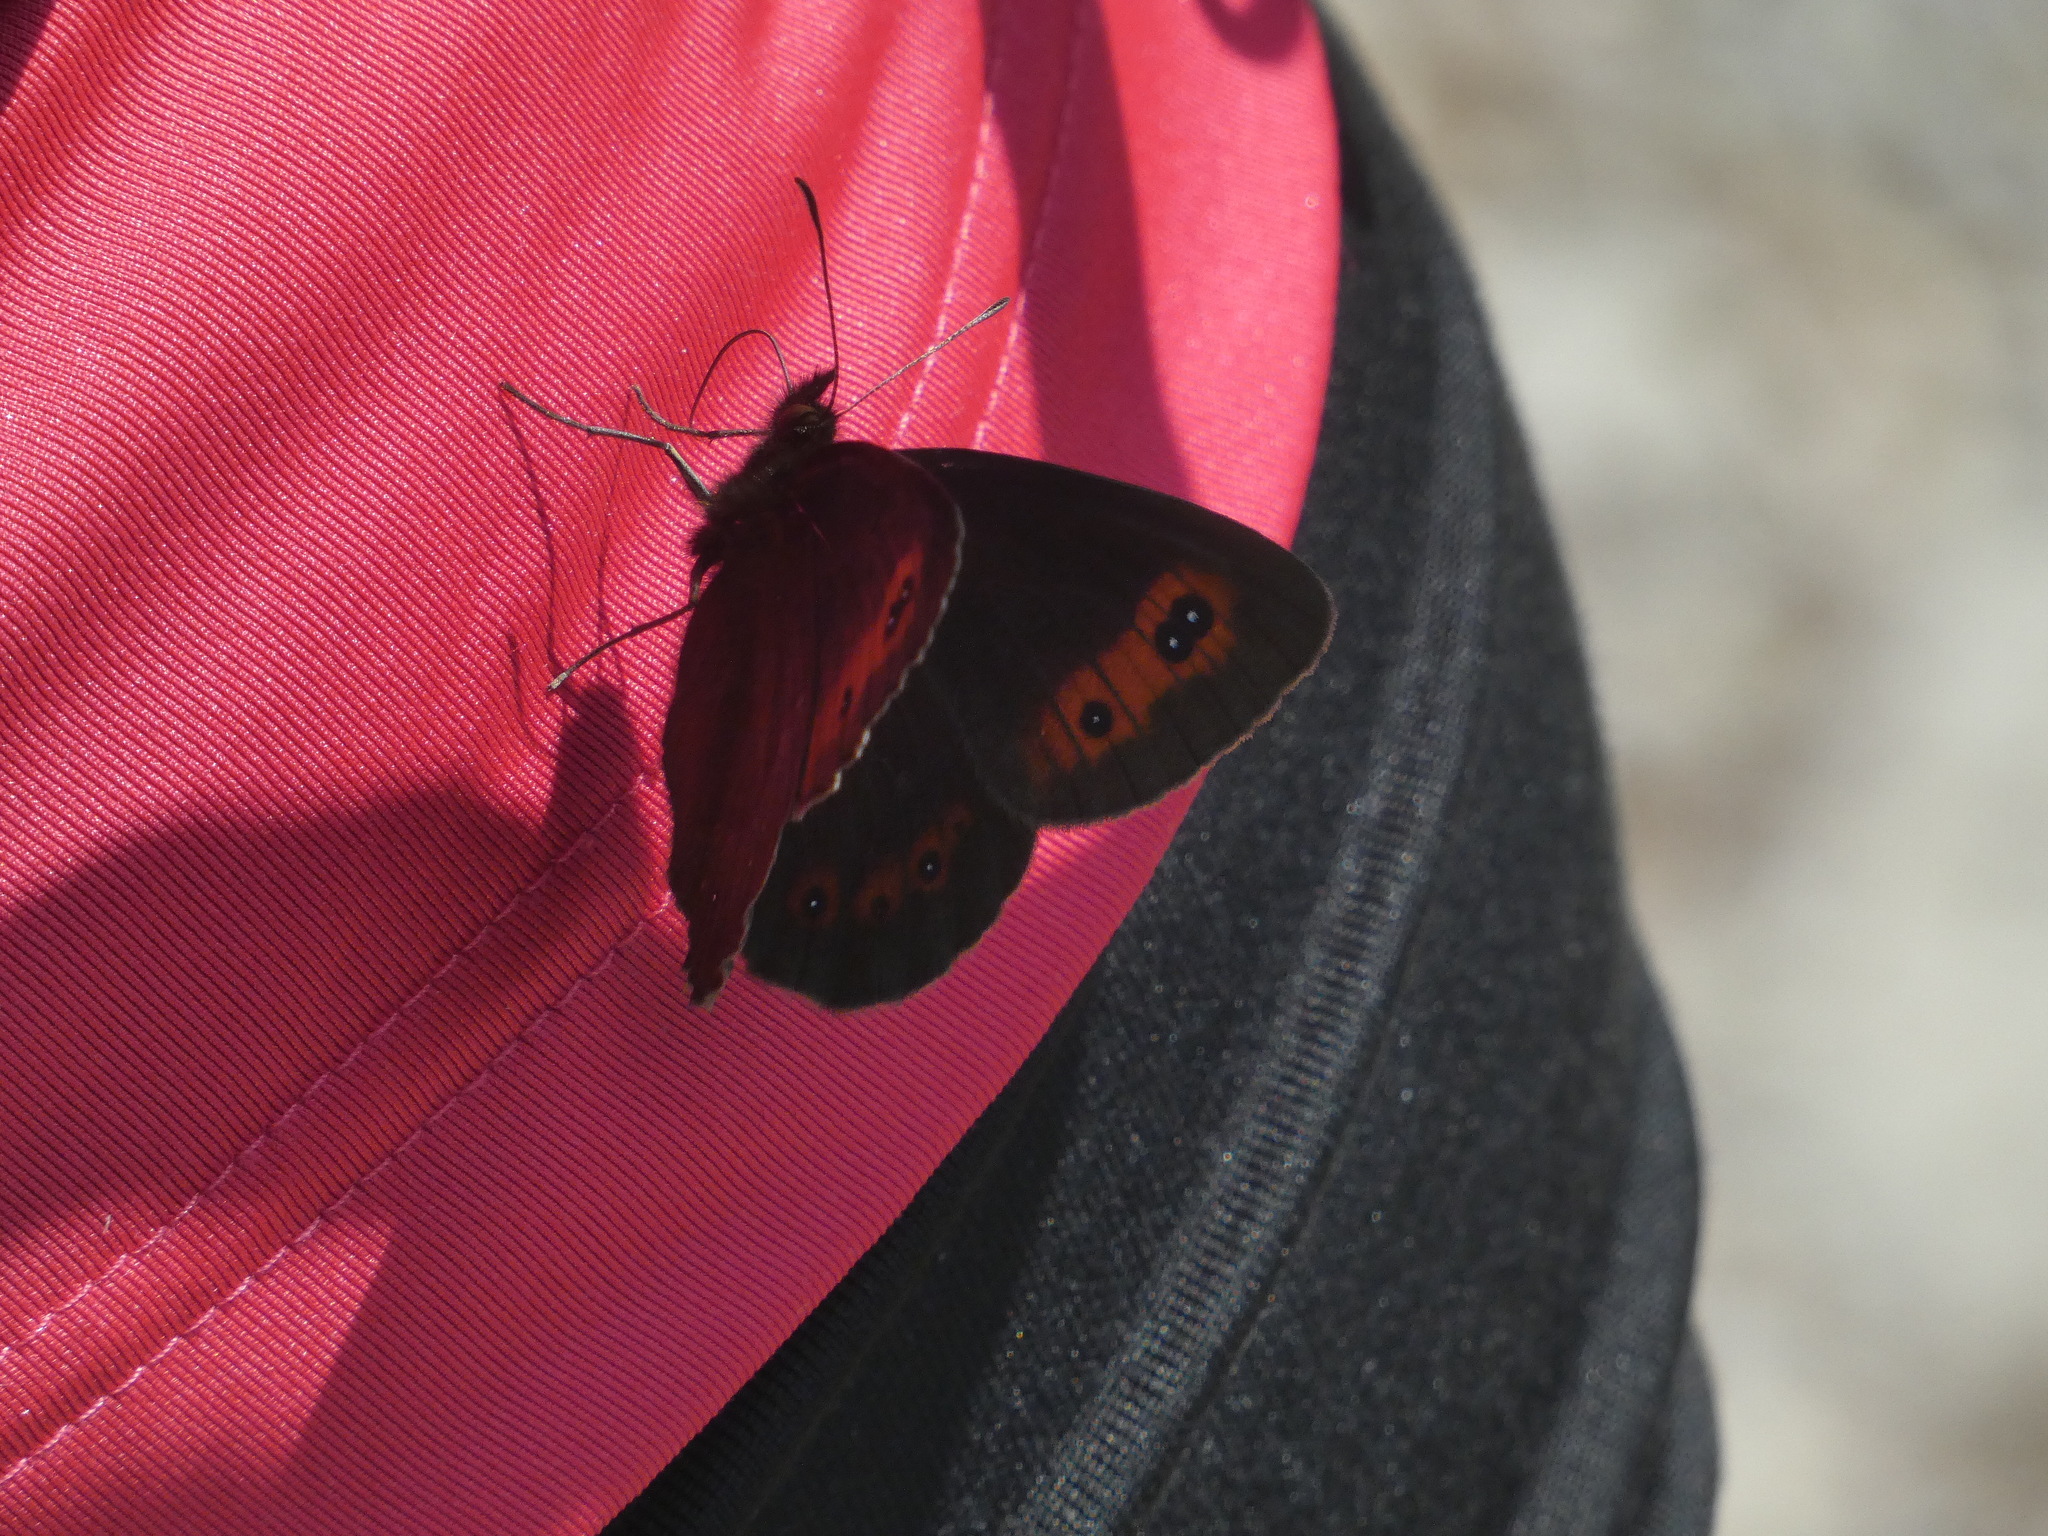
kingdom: Animalia
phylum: Arthropoda
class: Insecta
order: Lepidoptera
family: Nymphalidae
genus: Erebia
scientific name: Erebia aethiops
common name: Scotch argus
